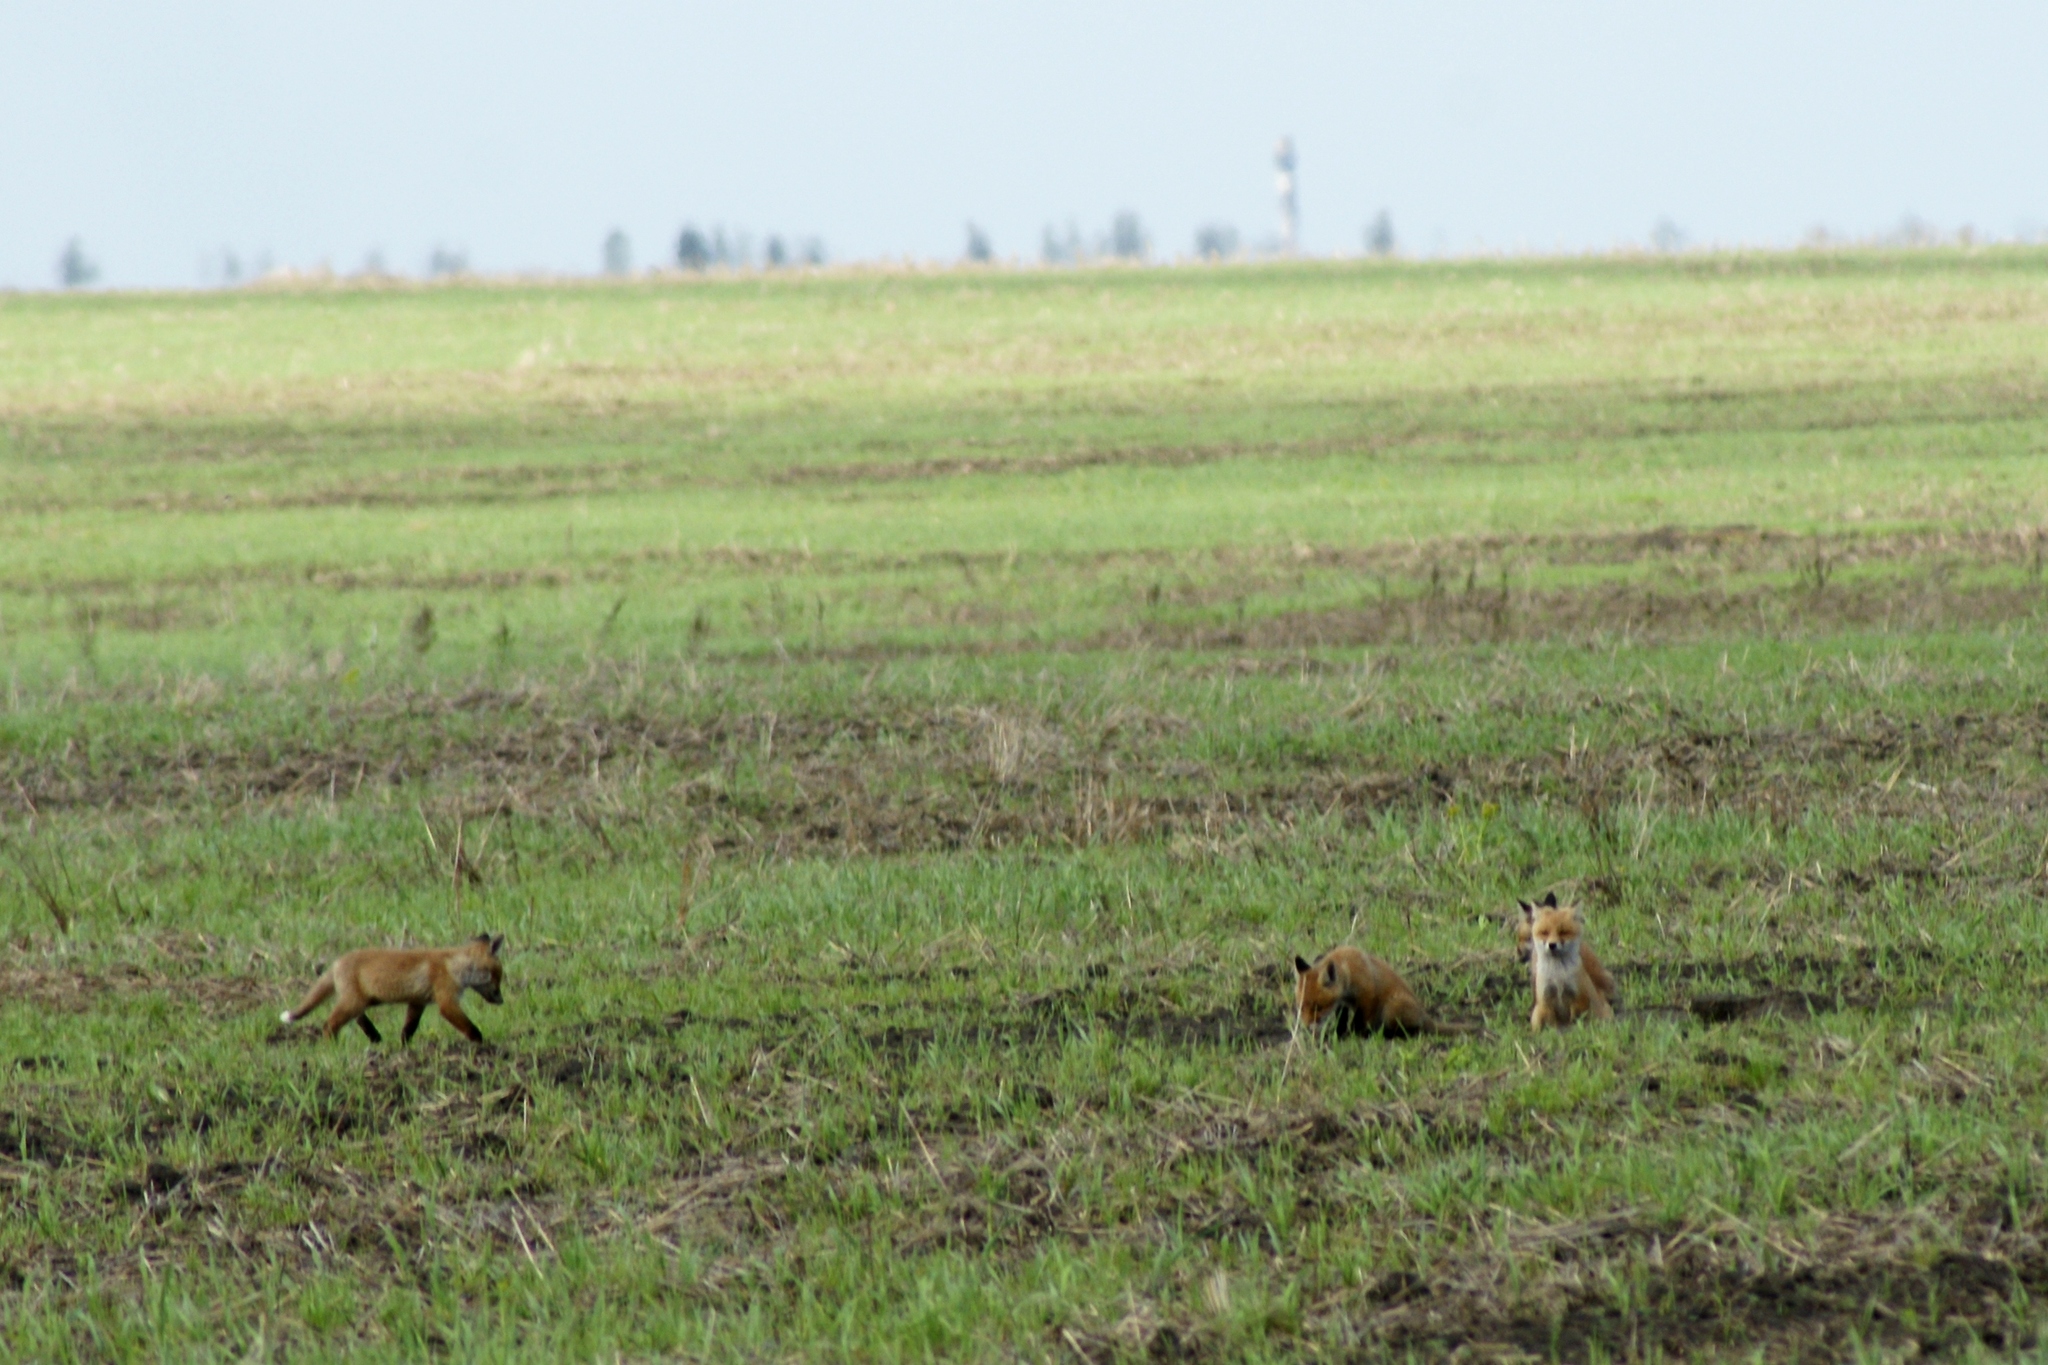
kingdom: Animalia
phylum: Chordata
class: Mammalia
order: Carnivora
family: Canidae
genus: Vulpes
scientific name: Vulpes vulpes
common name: Red fox
